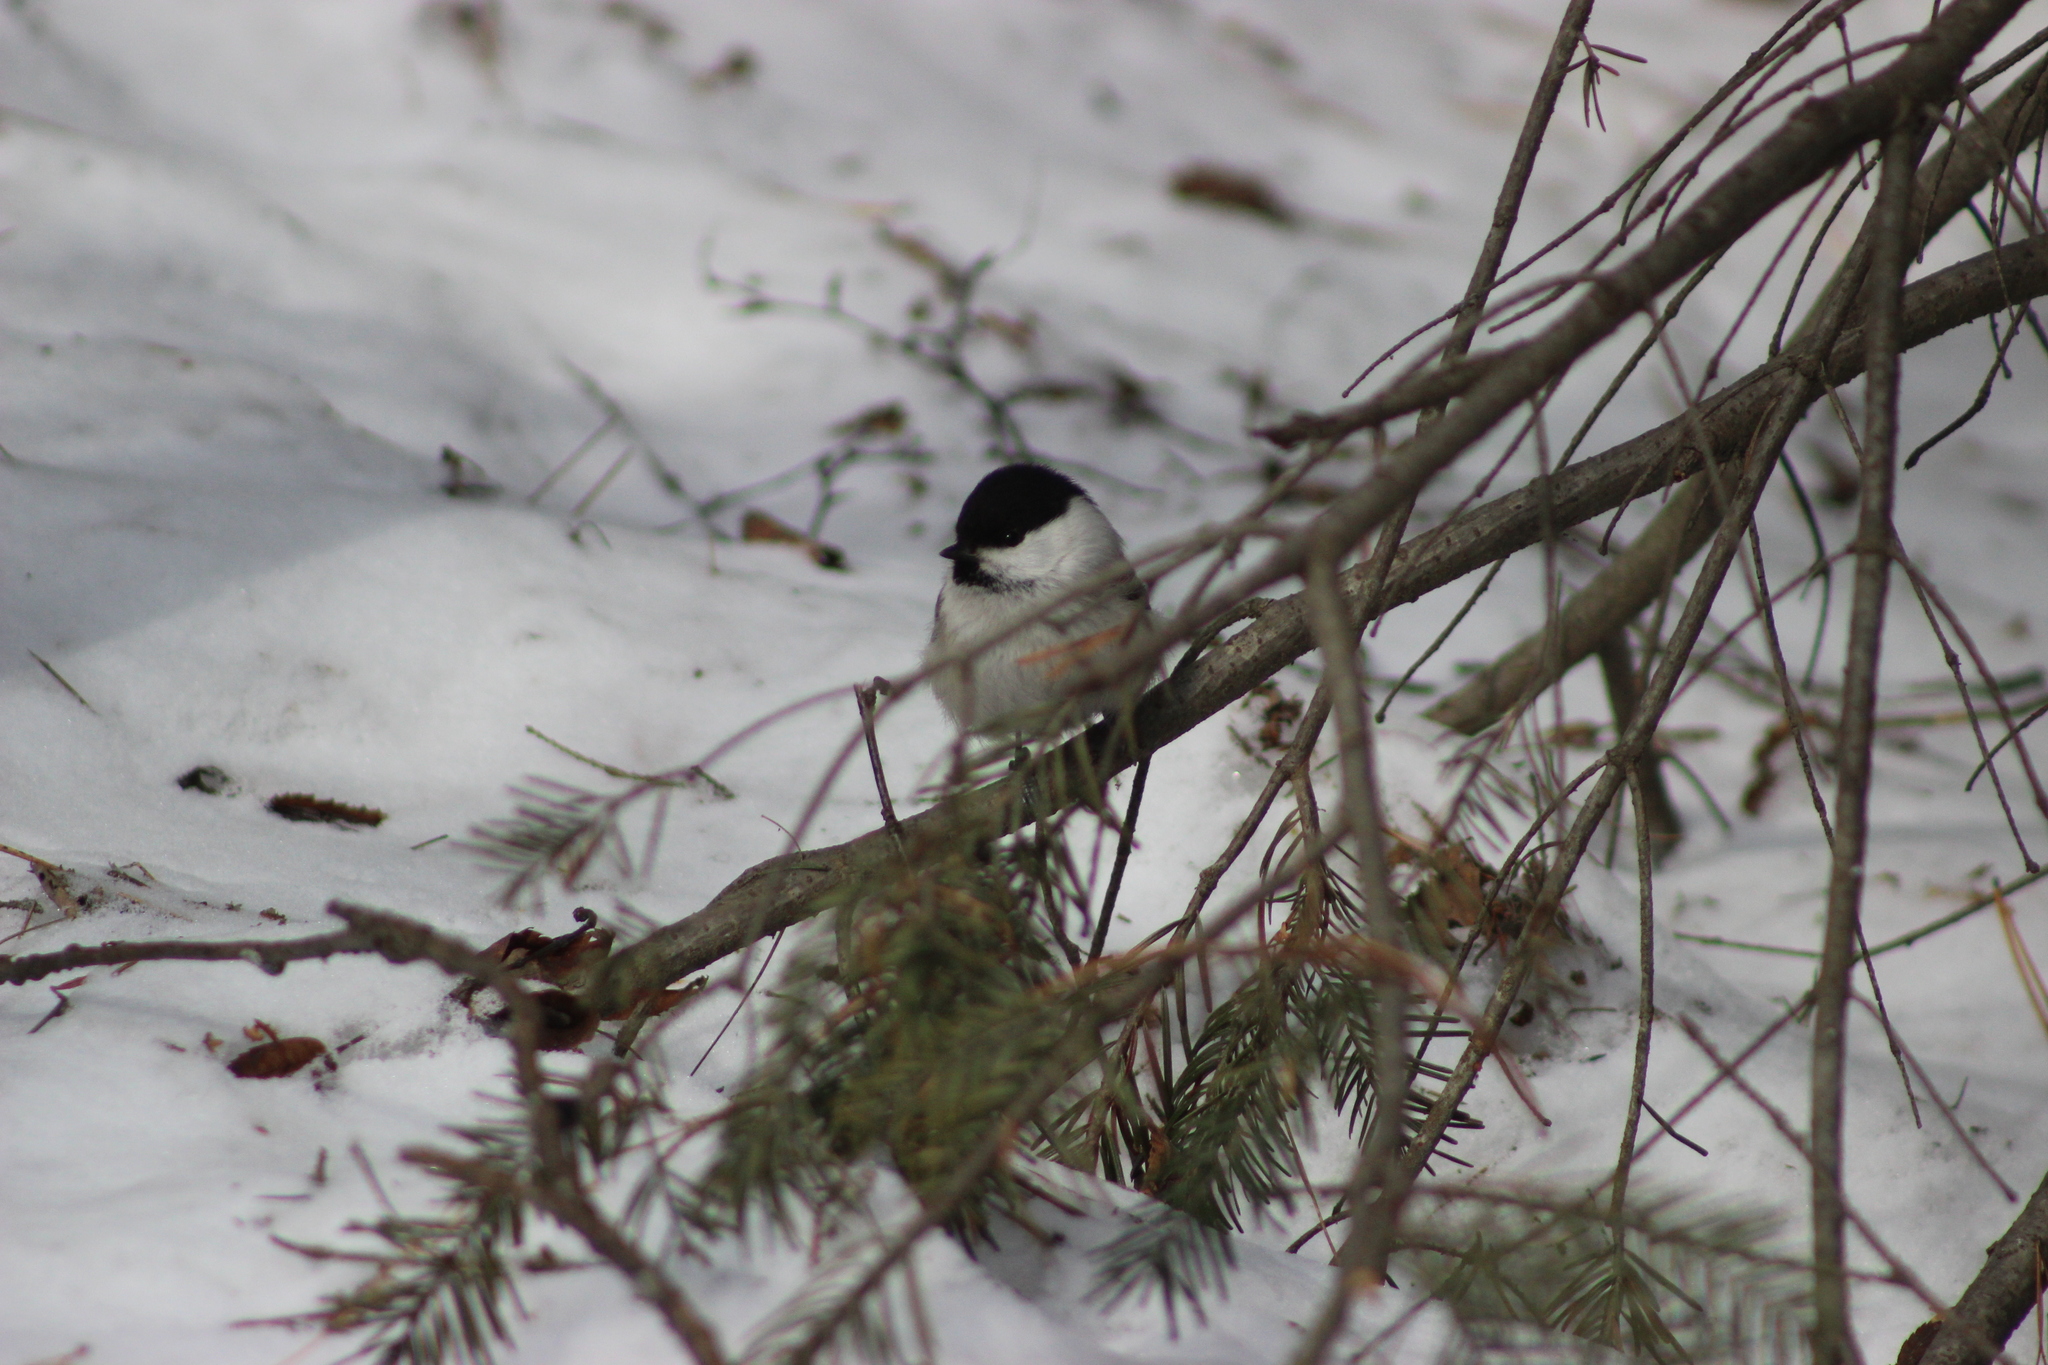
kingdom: Animalia
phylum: Chordata
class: Aves
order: Passeriformes
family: Paridae
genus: Poecile
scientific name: Poecile montanus
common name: Willow tit
